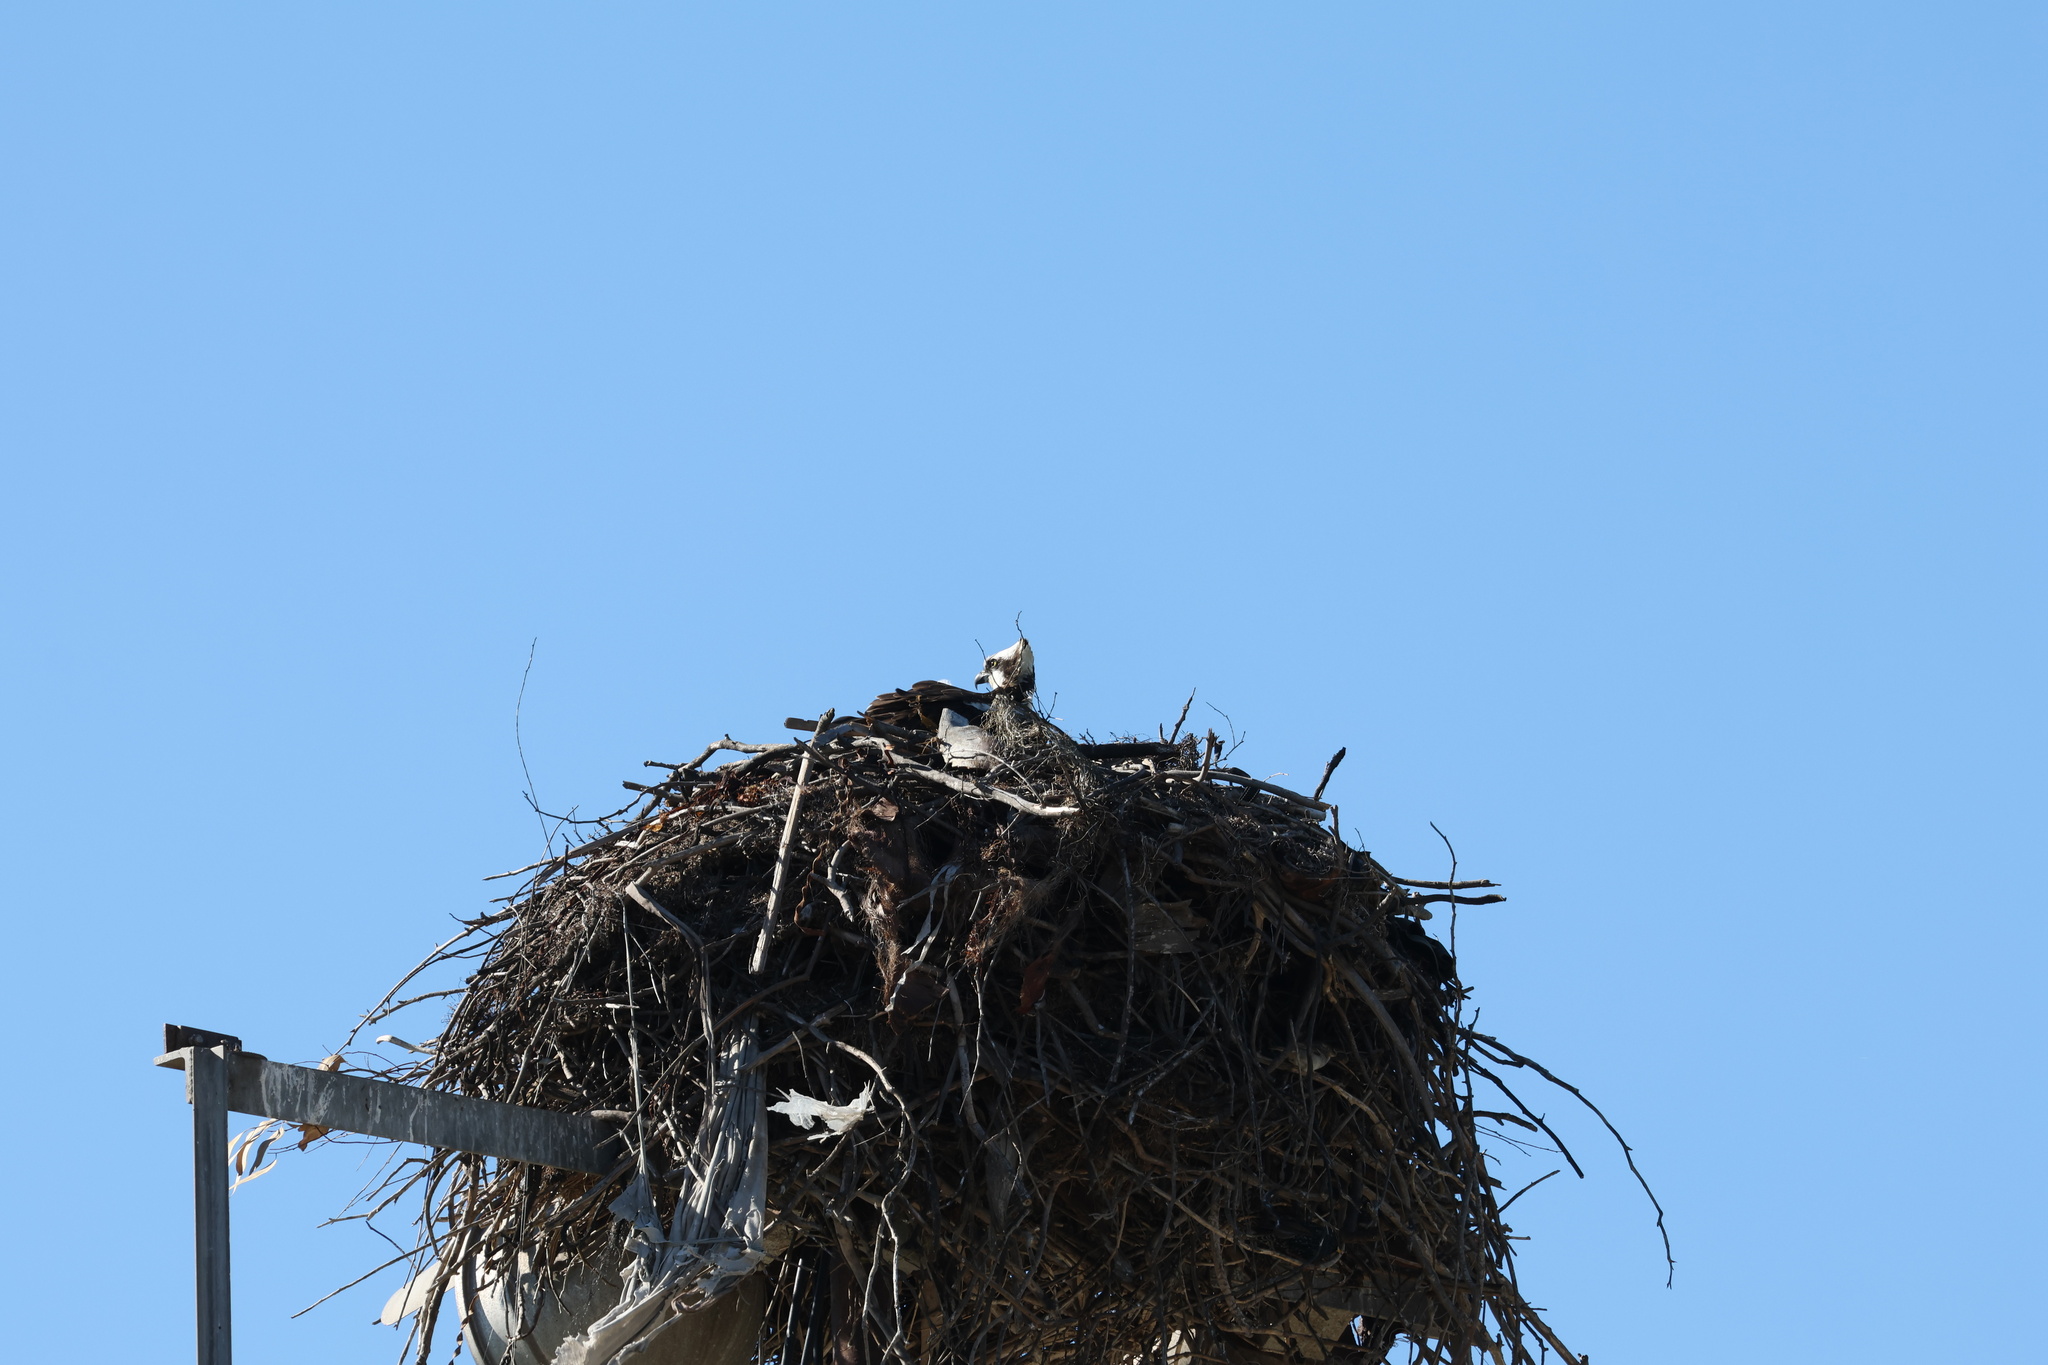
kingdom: Animalia
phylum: Chordata
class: Aves
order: Accipitriformes
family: Pandionidae
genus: Pandion
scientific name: Pandion haliaetus
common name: Osprey
